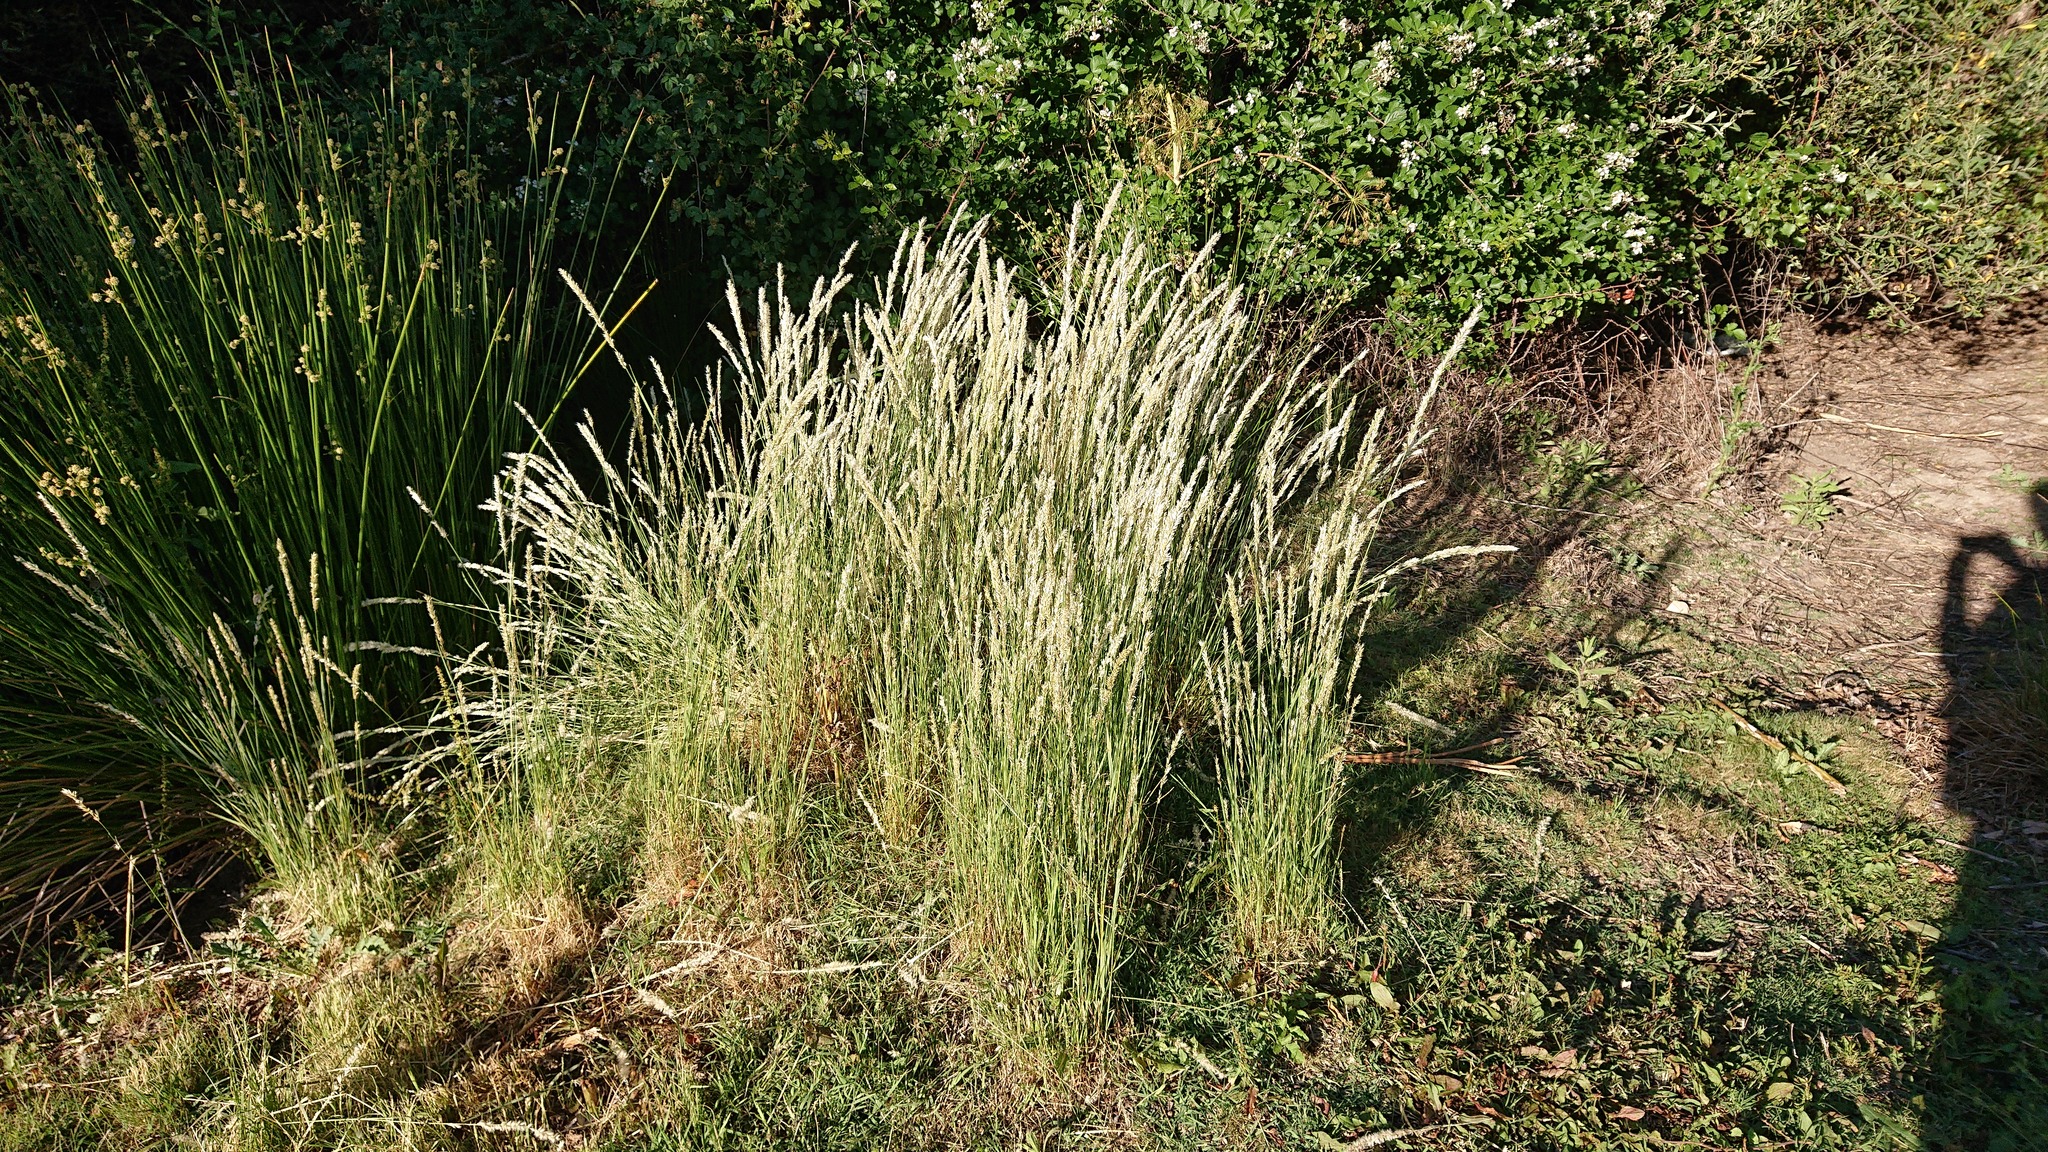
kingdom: Plantae
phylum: Tracheophyta
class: Liliopsida
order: Poales
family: Poaceae
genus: Melica
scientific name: Melica ciliata
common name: Hairy melicgrass
